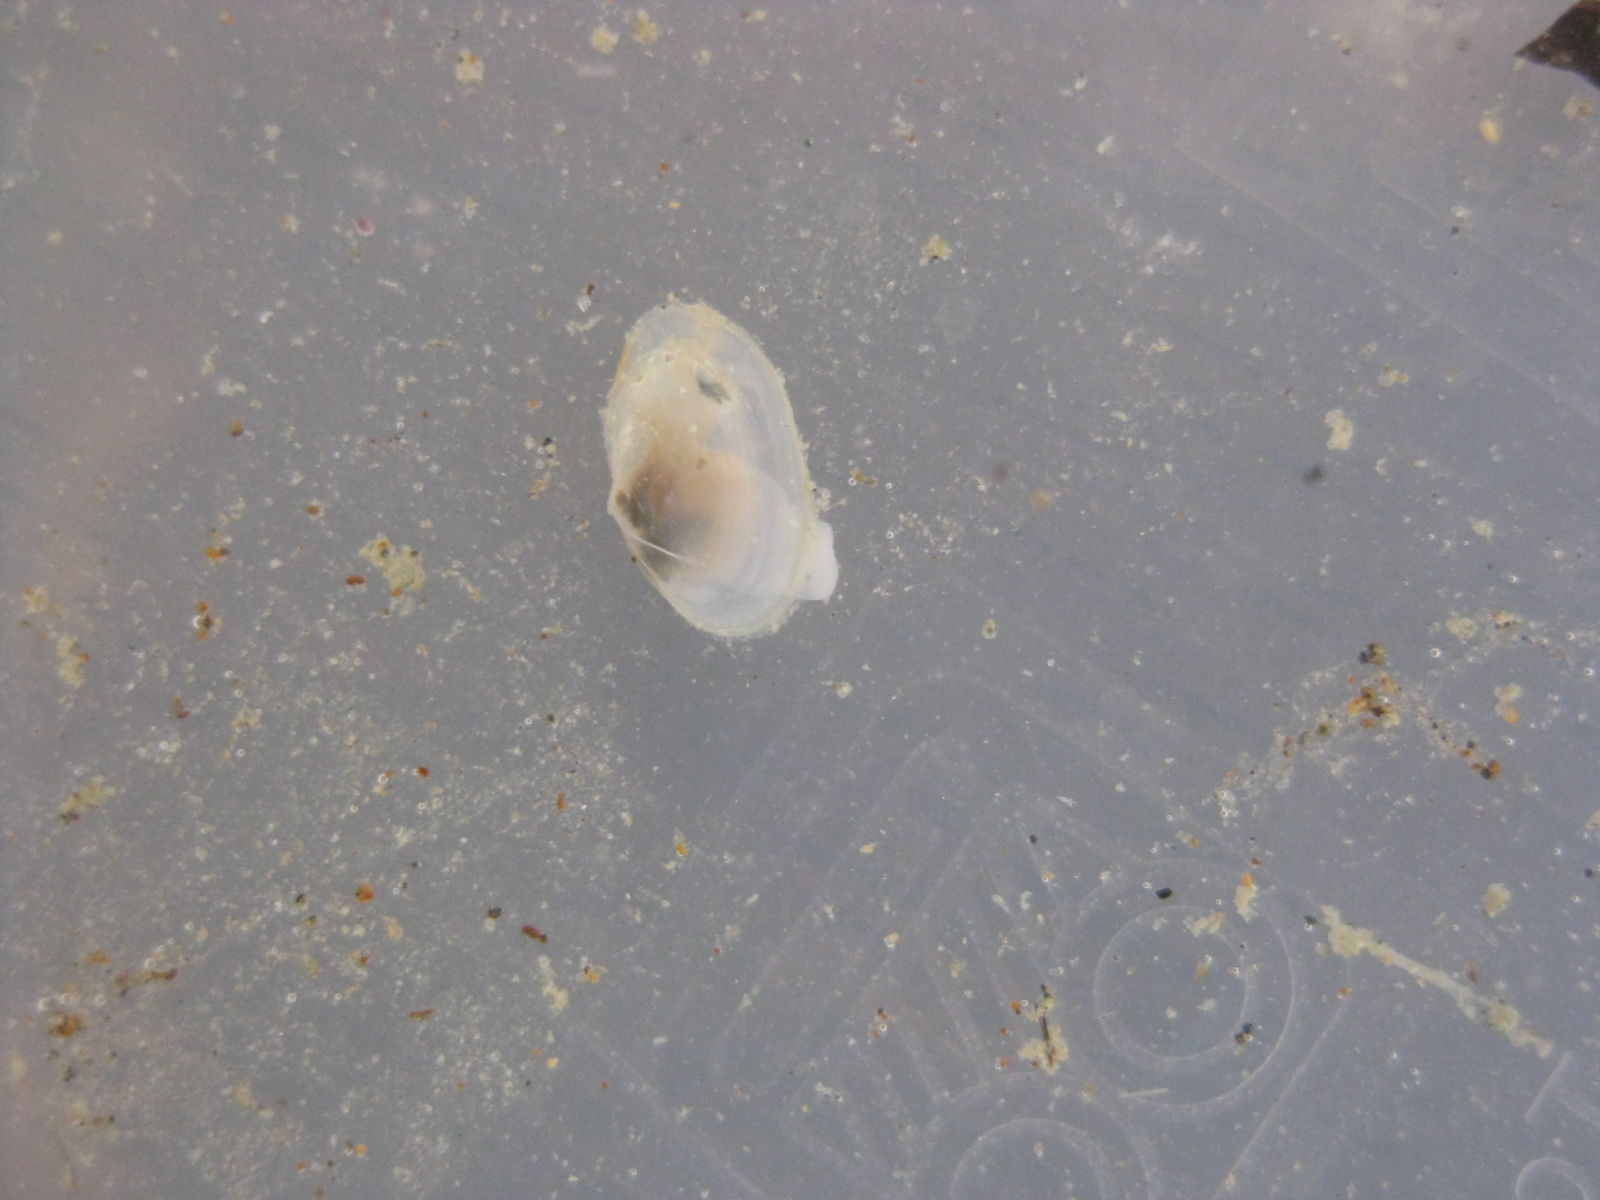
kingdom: Animalia
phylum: Mollusca
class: Bivalvia
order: Cardiida
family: Semelidae
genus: Theora
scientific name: Theora lubrica
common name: Asian semele
